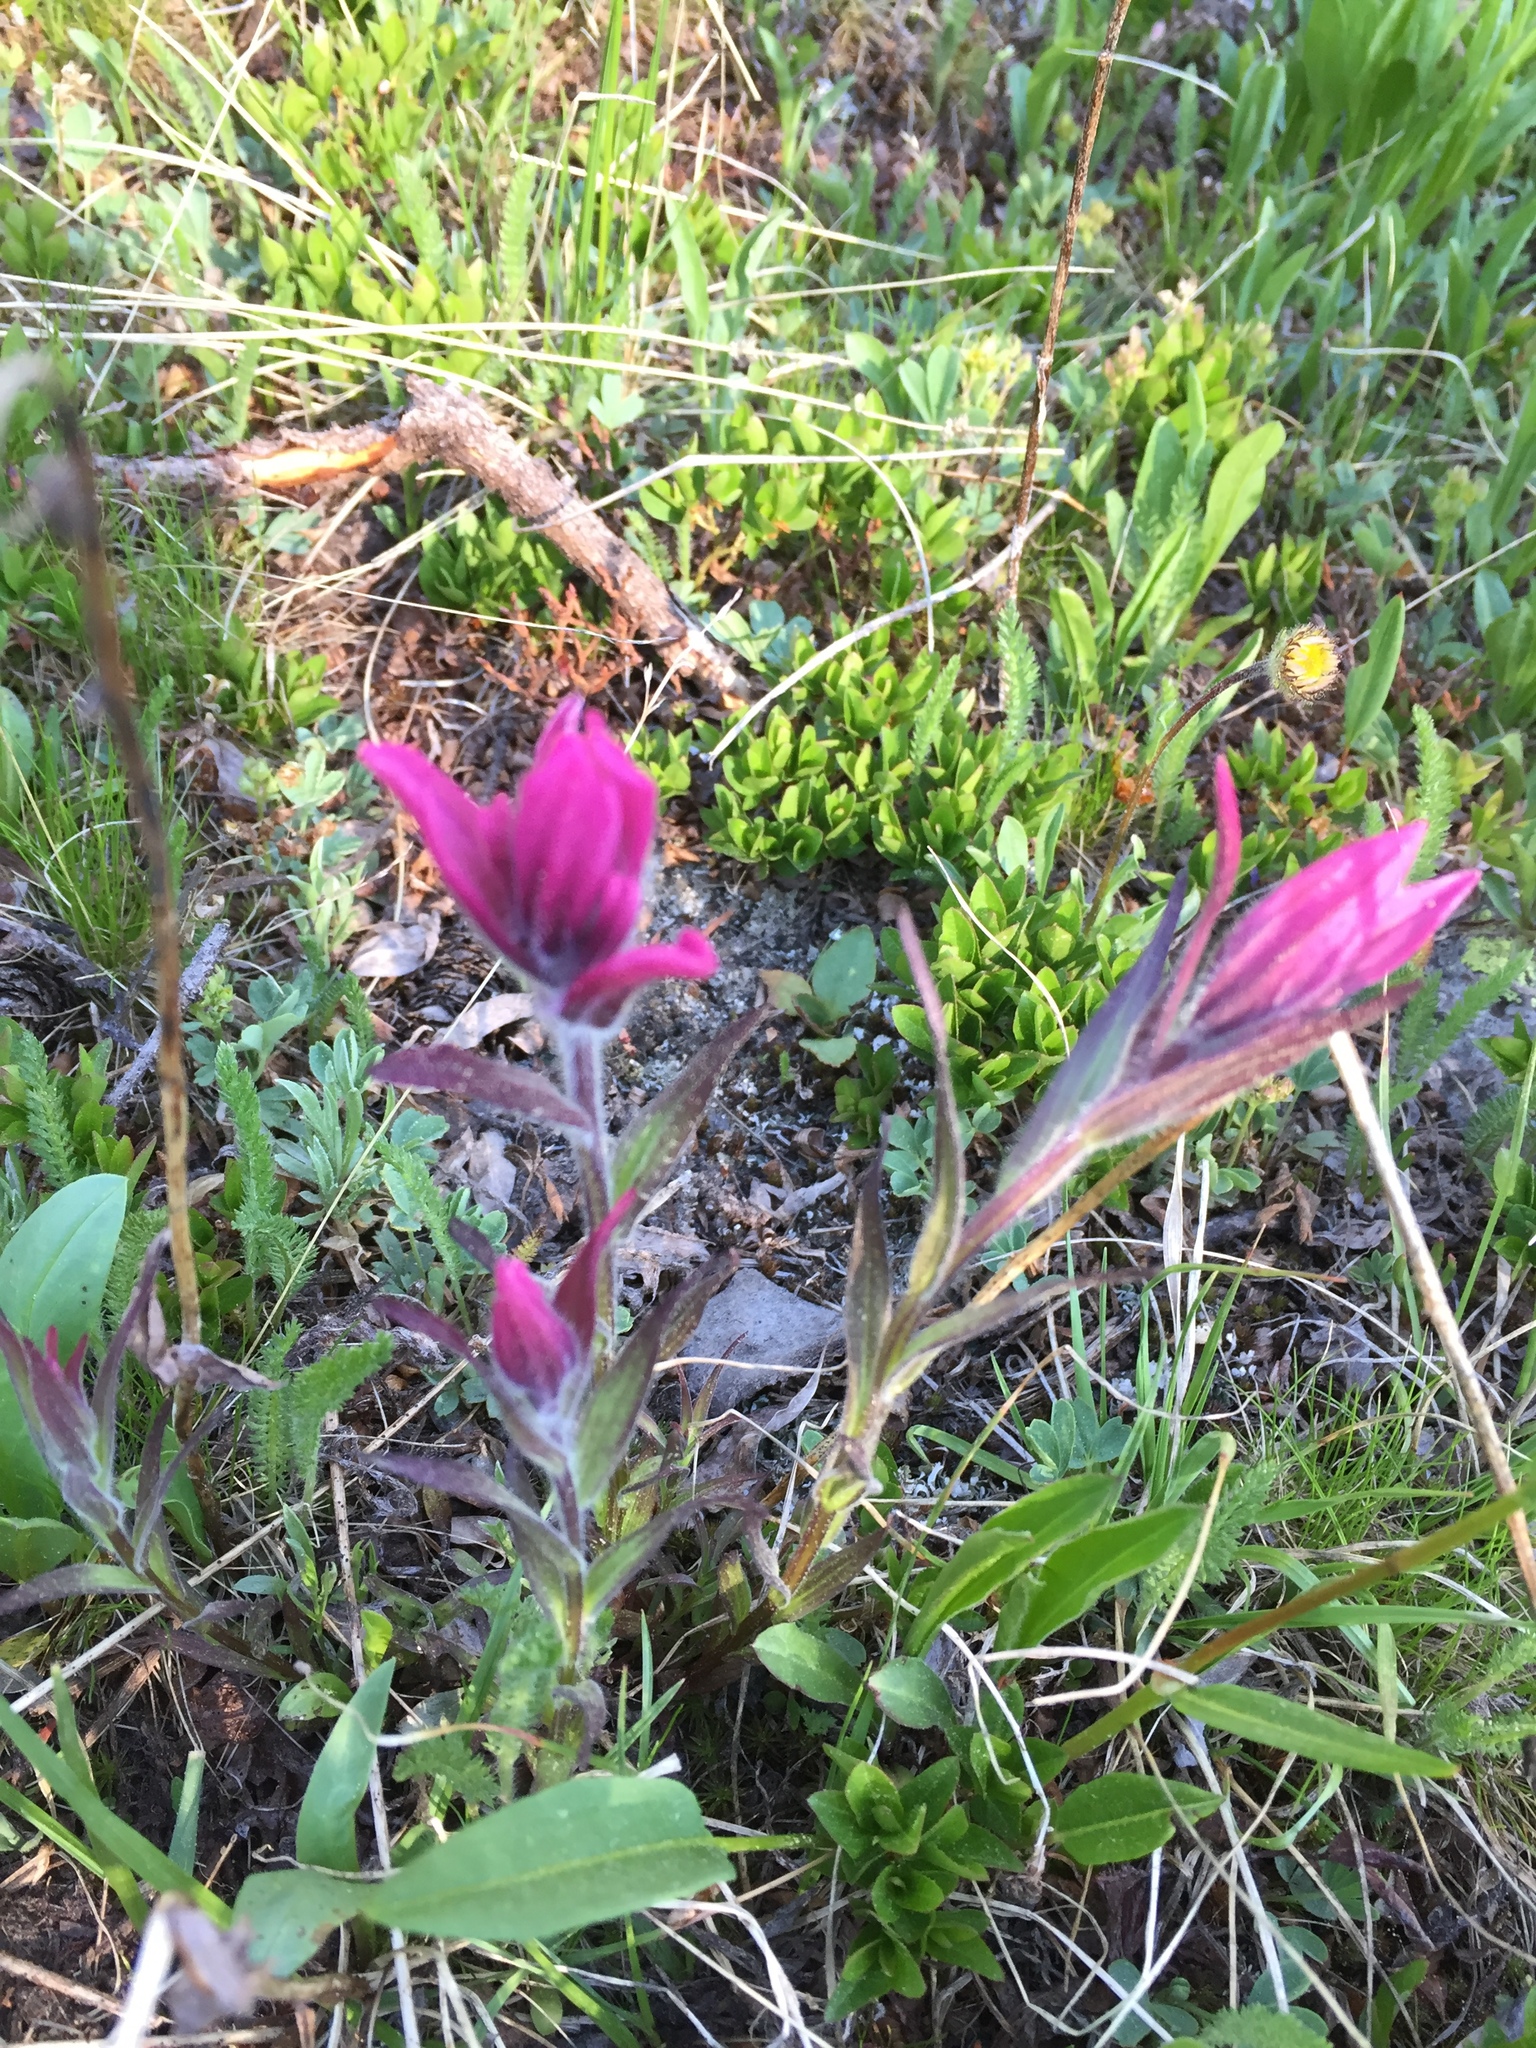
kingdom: Plantae
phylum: Tracheophyta
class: Magnoliopsida
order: Lamiales
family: Orobanchaceae
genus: Castilleja
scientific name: Castilleja rhexifolia
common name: Rocky mountain paintbrush
